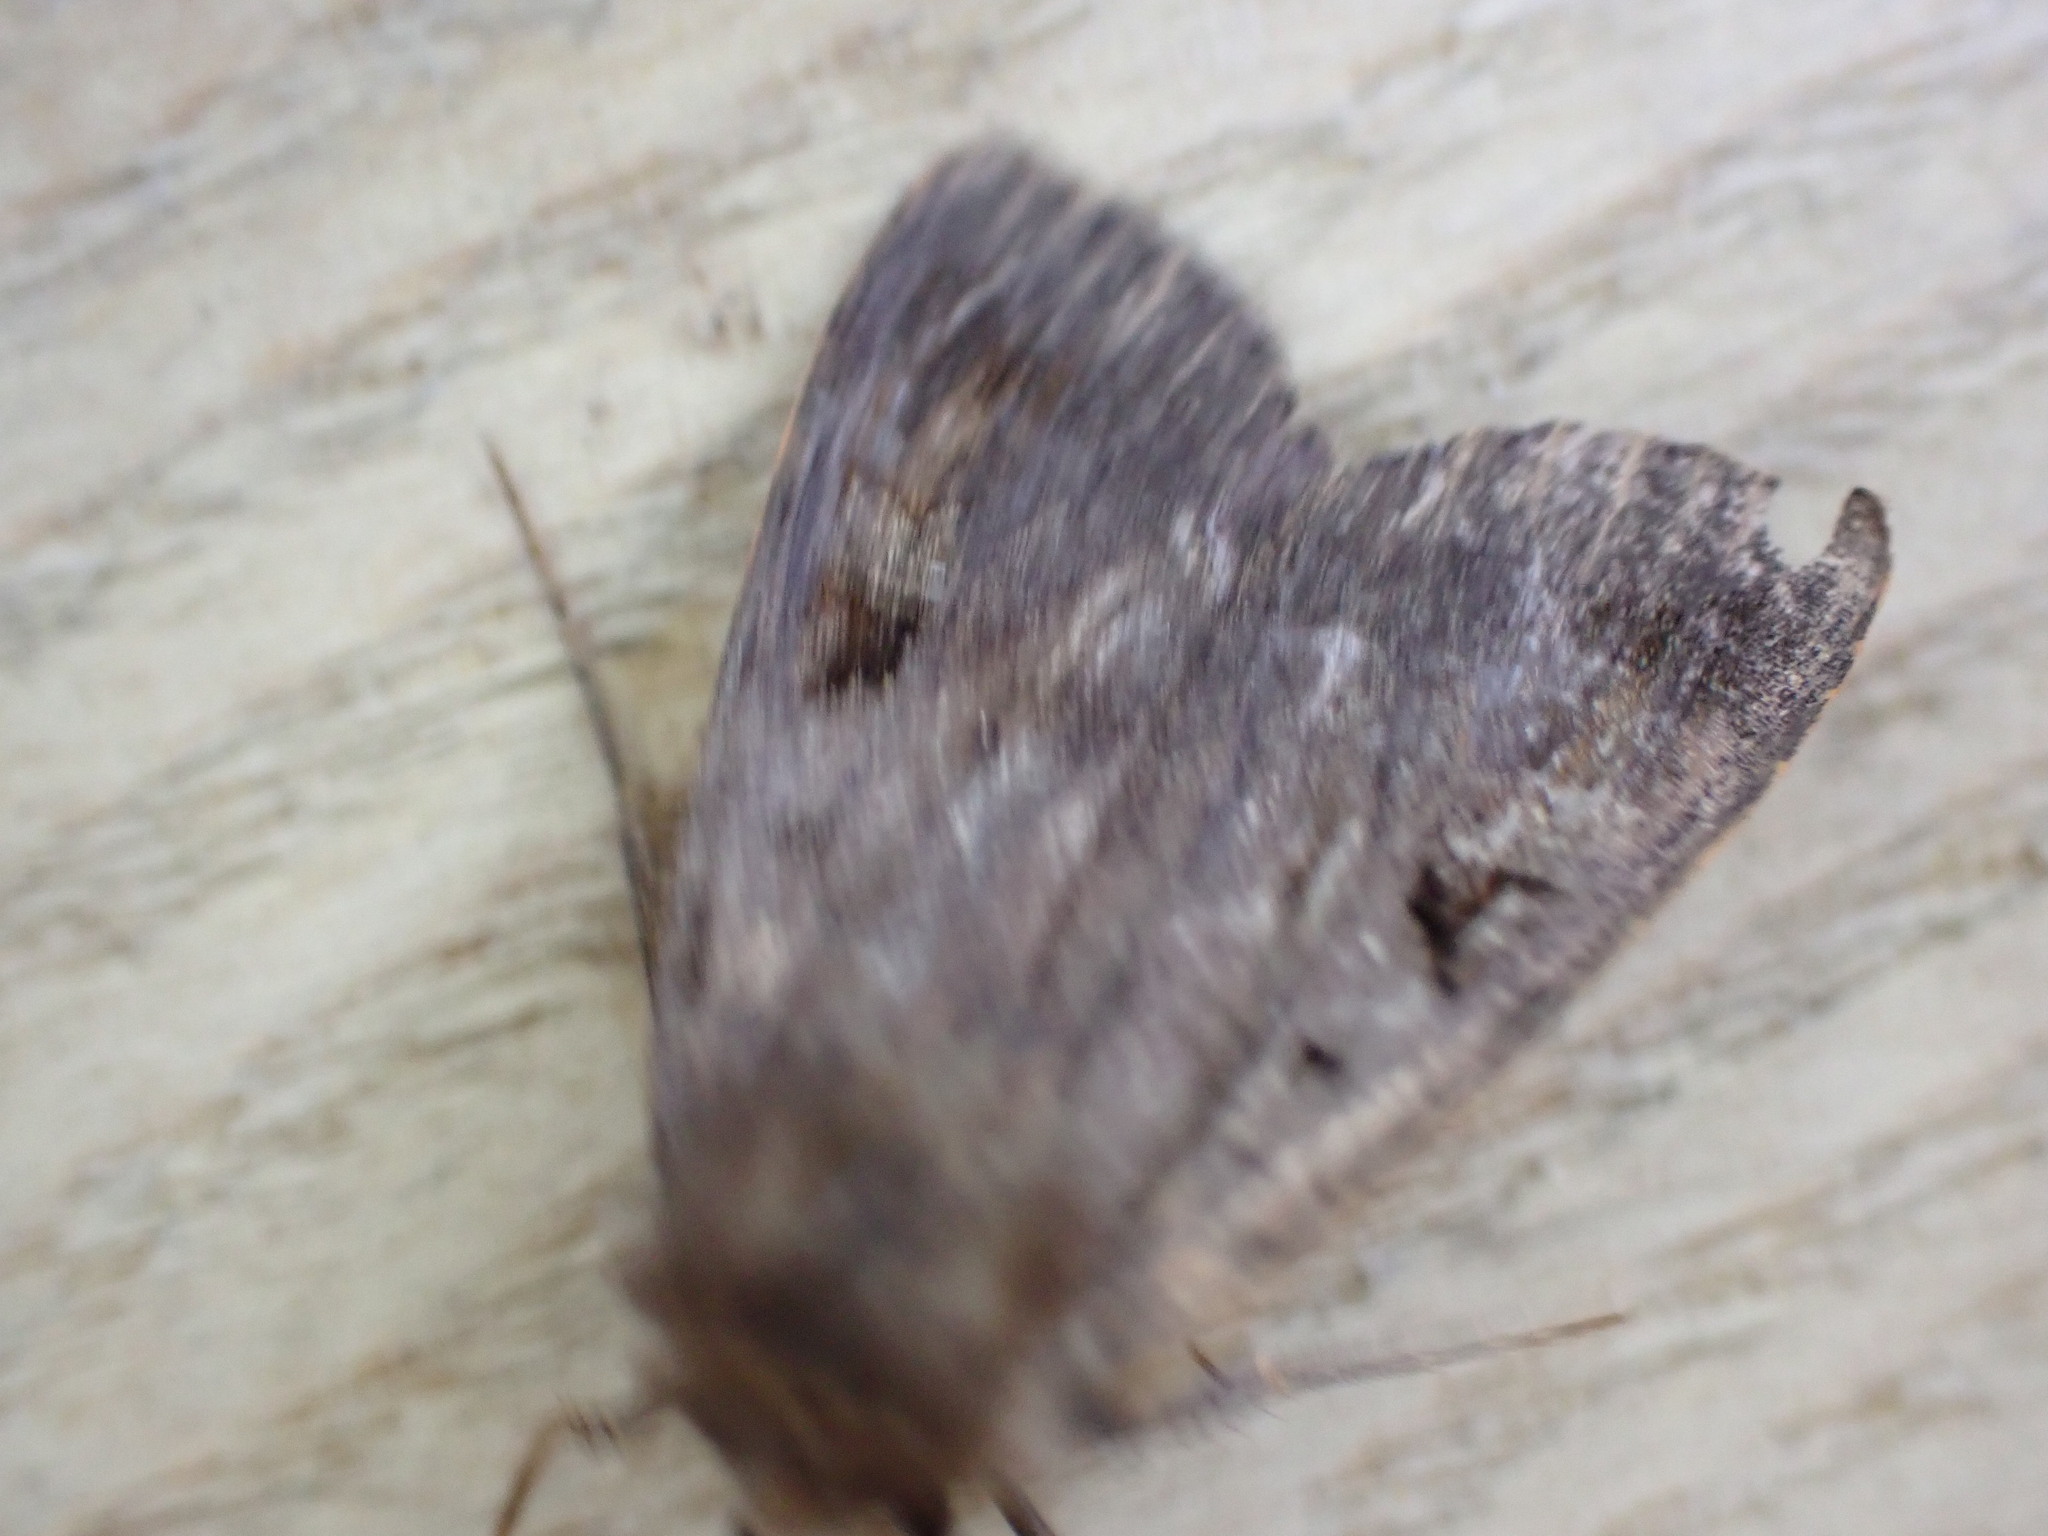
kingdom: Animalia
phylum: Arthropoda
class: Insecta
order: Lepidoptera
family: Noctuidae
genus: Diarsia
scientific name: Diarsia brunnea
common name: Purple clay
